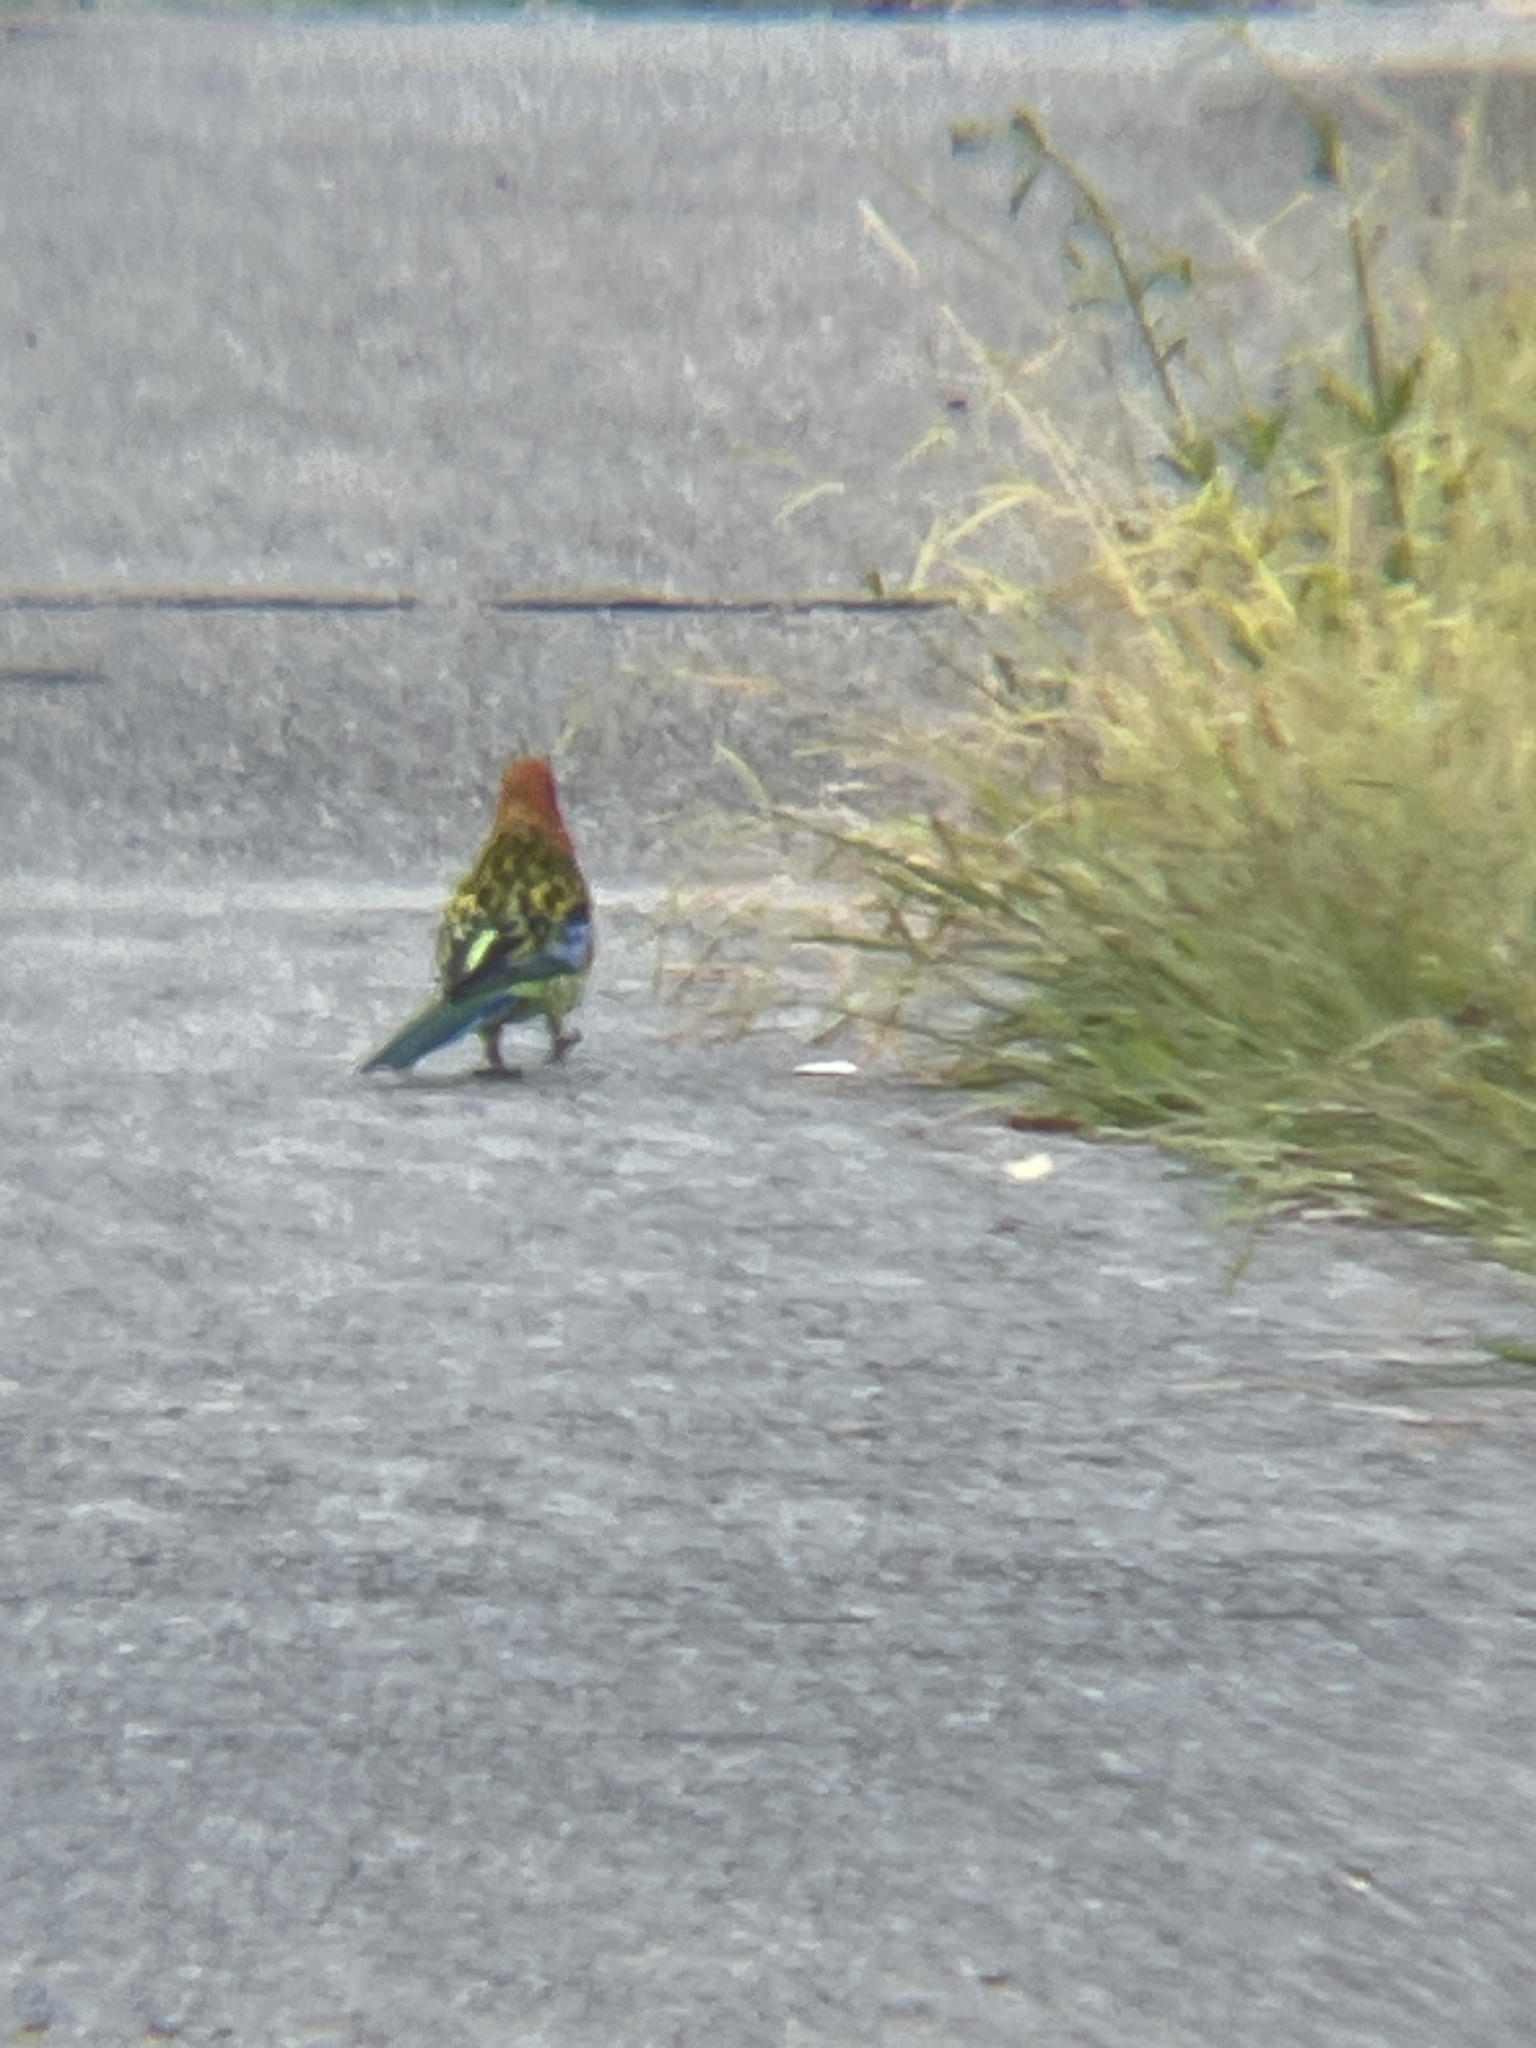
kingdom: Animalia
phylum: Chordata
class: Aves
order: Psittaciformes
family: Psittacidae
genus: Platycercus
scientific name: Platycercus eximius
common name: Eastern rosella
